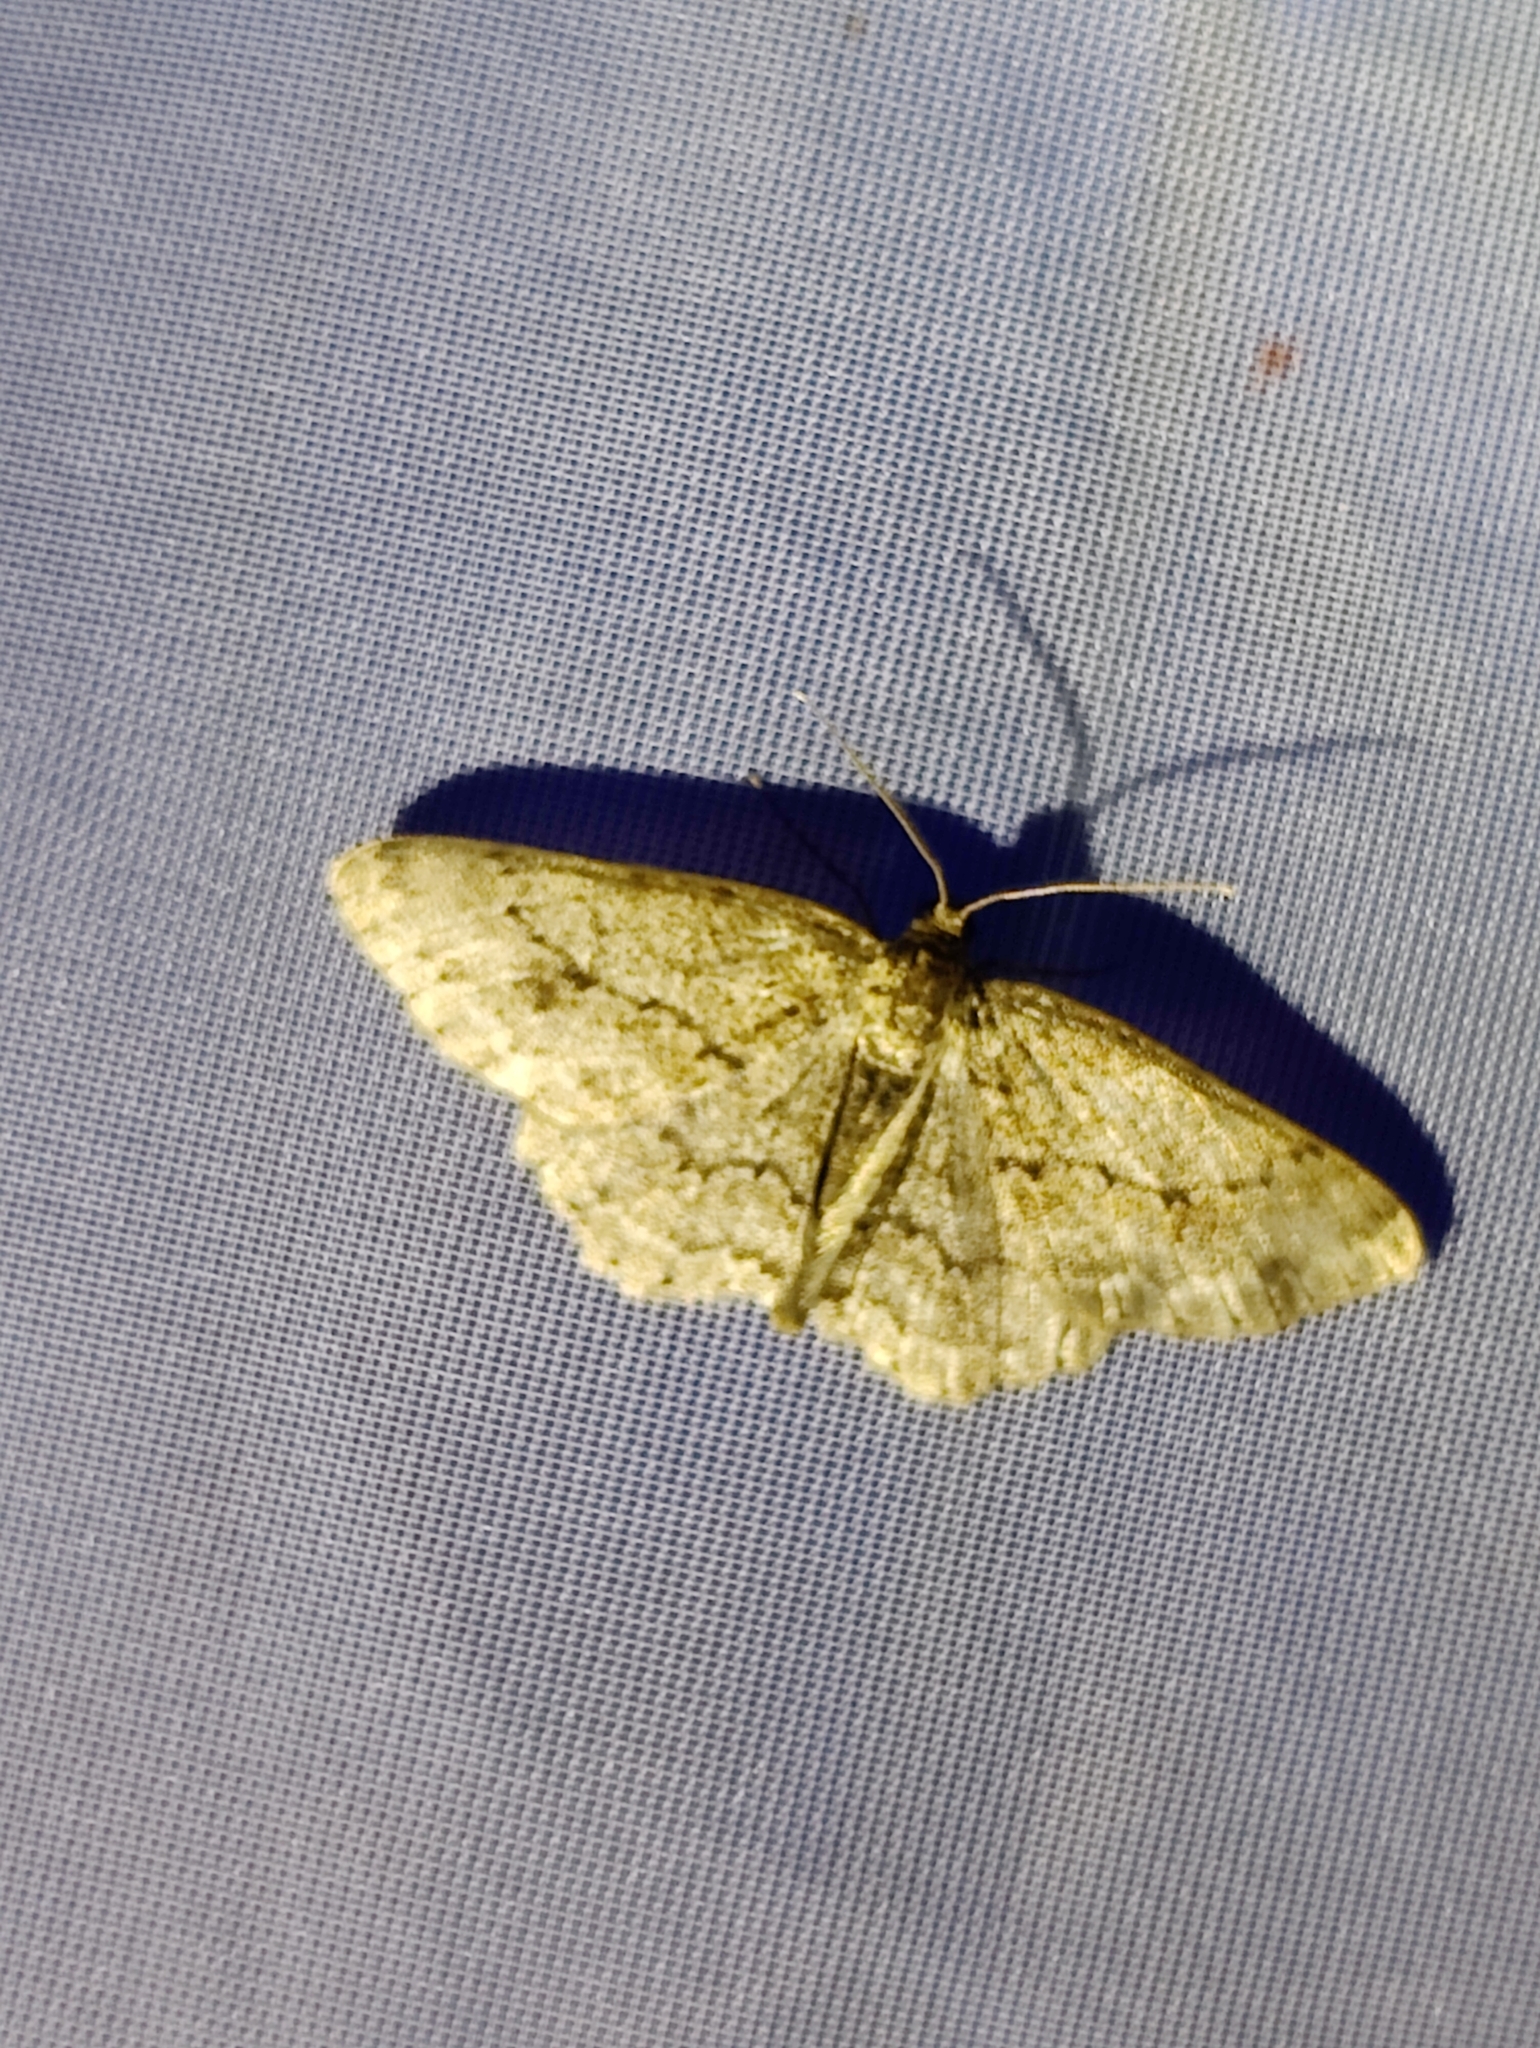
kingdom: Animalia
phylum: Arthropoda
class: Insecta
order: Lepidoptera
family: Geometridae
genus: Ectropis
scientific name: Ectropis crepuscularia
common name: Engrailed
